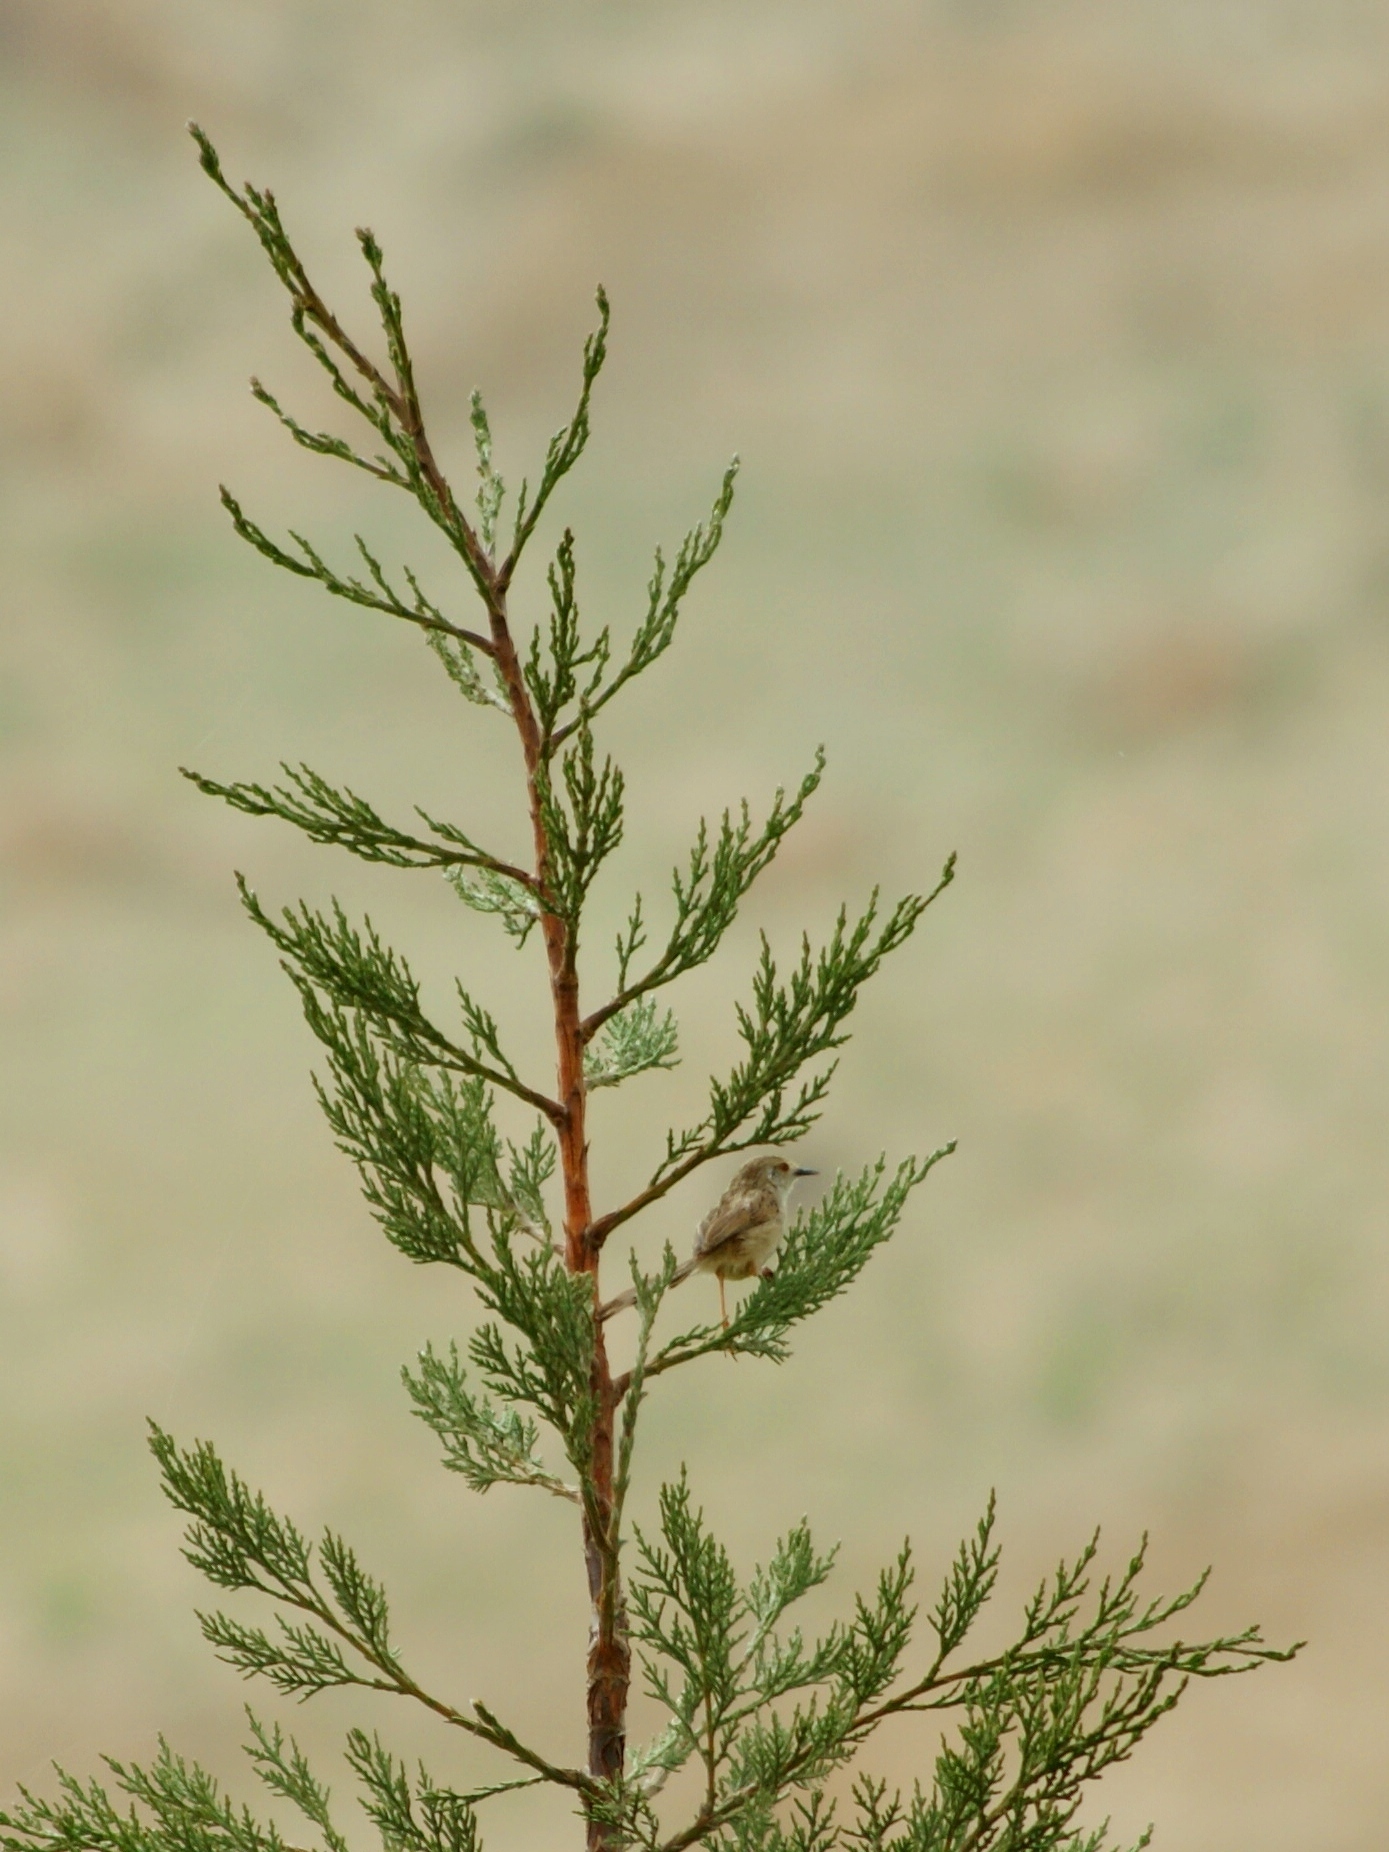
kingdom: Animalia
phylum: Chordata
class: Aves
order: Passeriformes
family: Cisticolidae
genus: Prinia
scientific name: Prinia gracilis
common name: Graceful prinia
